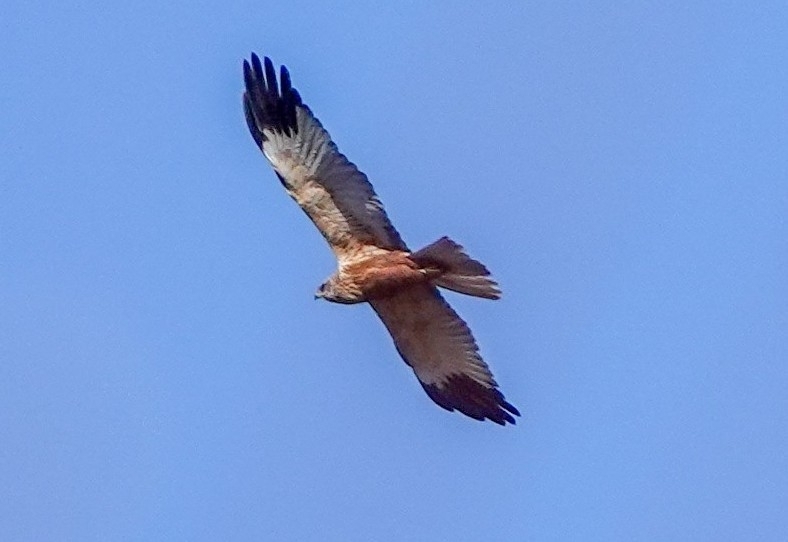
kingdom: Animalia
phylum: Chordata
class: Aves
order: Accipitriformes
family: Accipitridae
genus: Circus
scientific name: Circus aeruginosus
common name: Western marsh harrier
